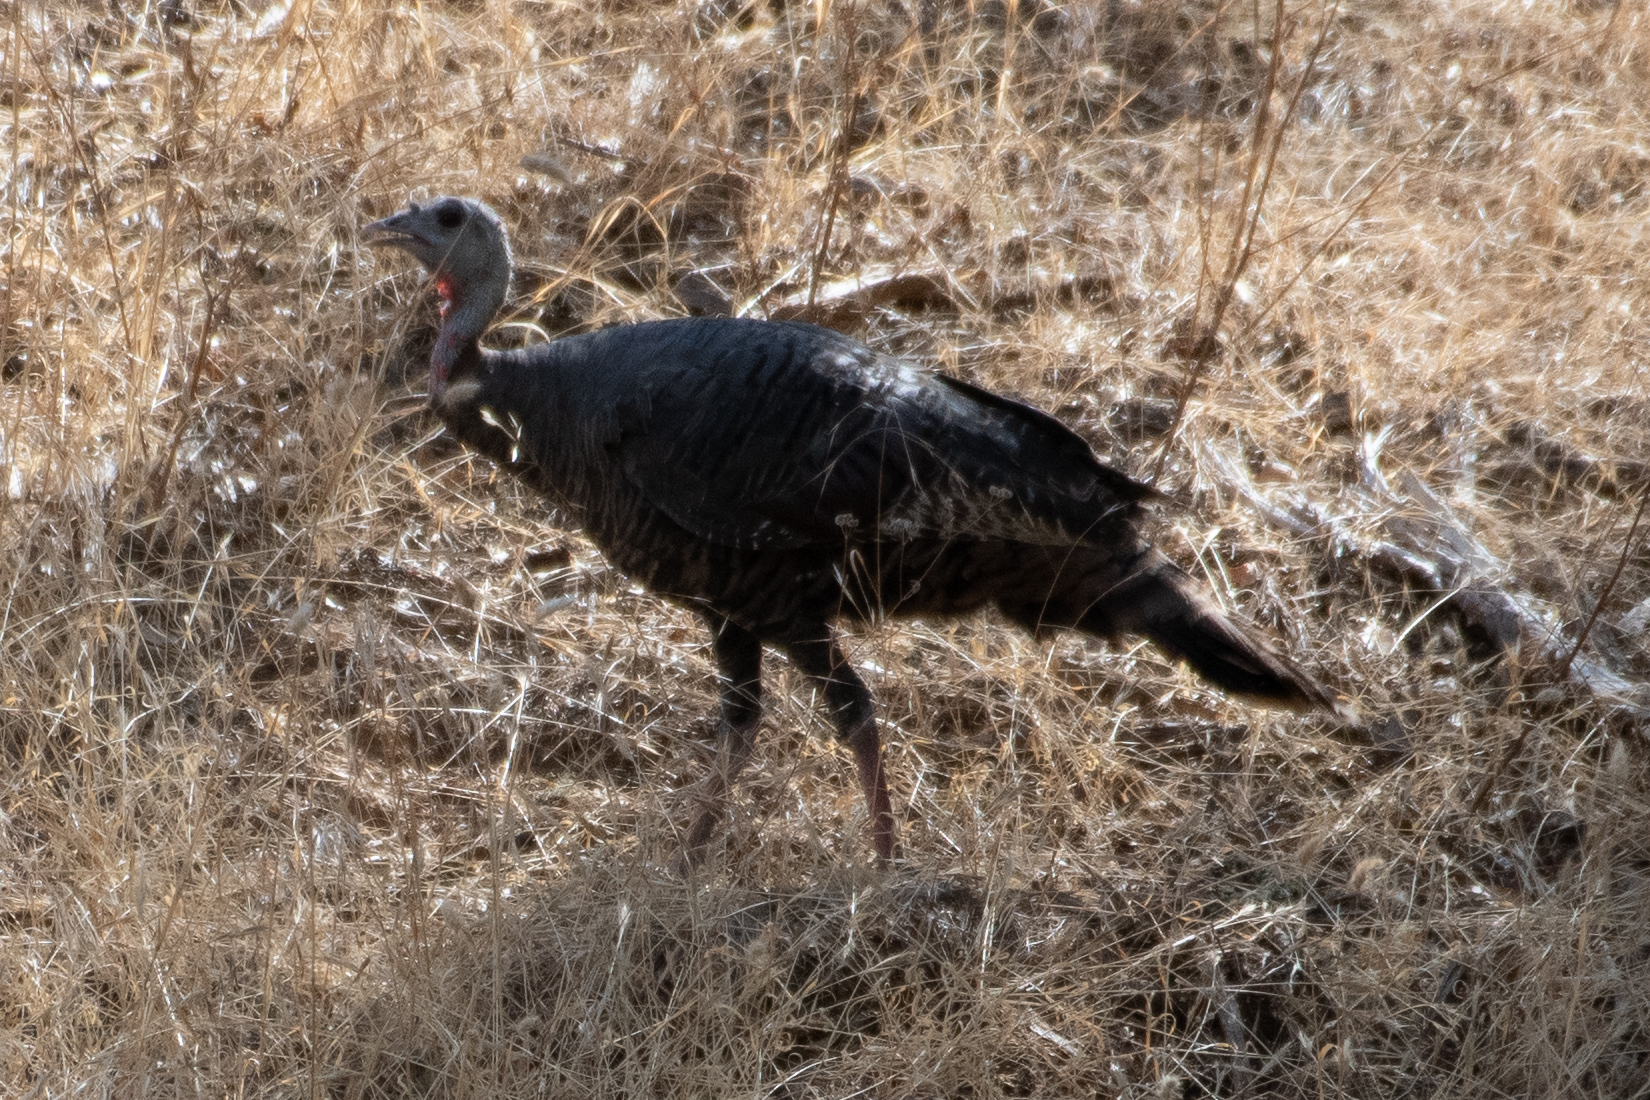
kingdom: Animalia
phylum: Chordata
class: Aves
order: Galliformes
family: Phasianidae
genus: Meleagris
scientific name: Meleagris gallopavo
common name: Wild turkey
